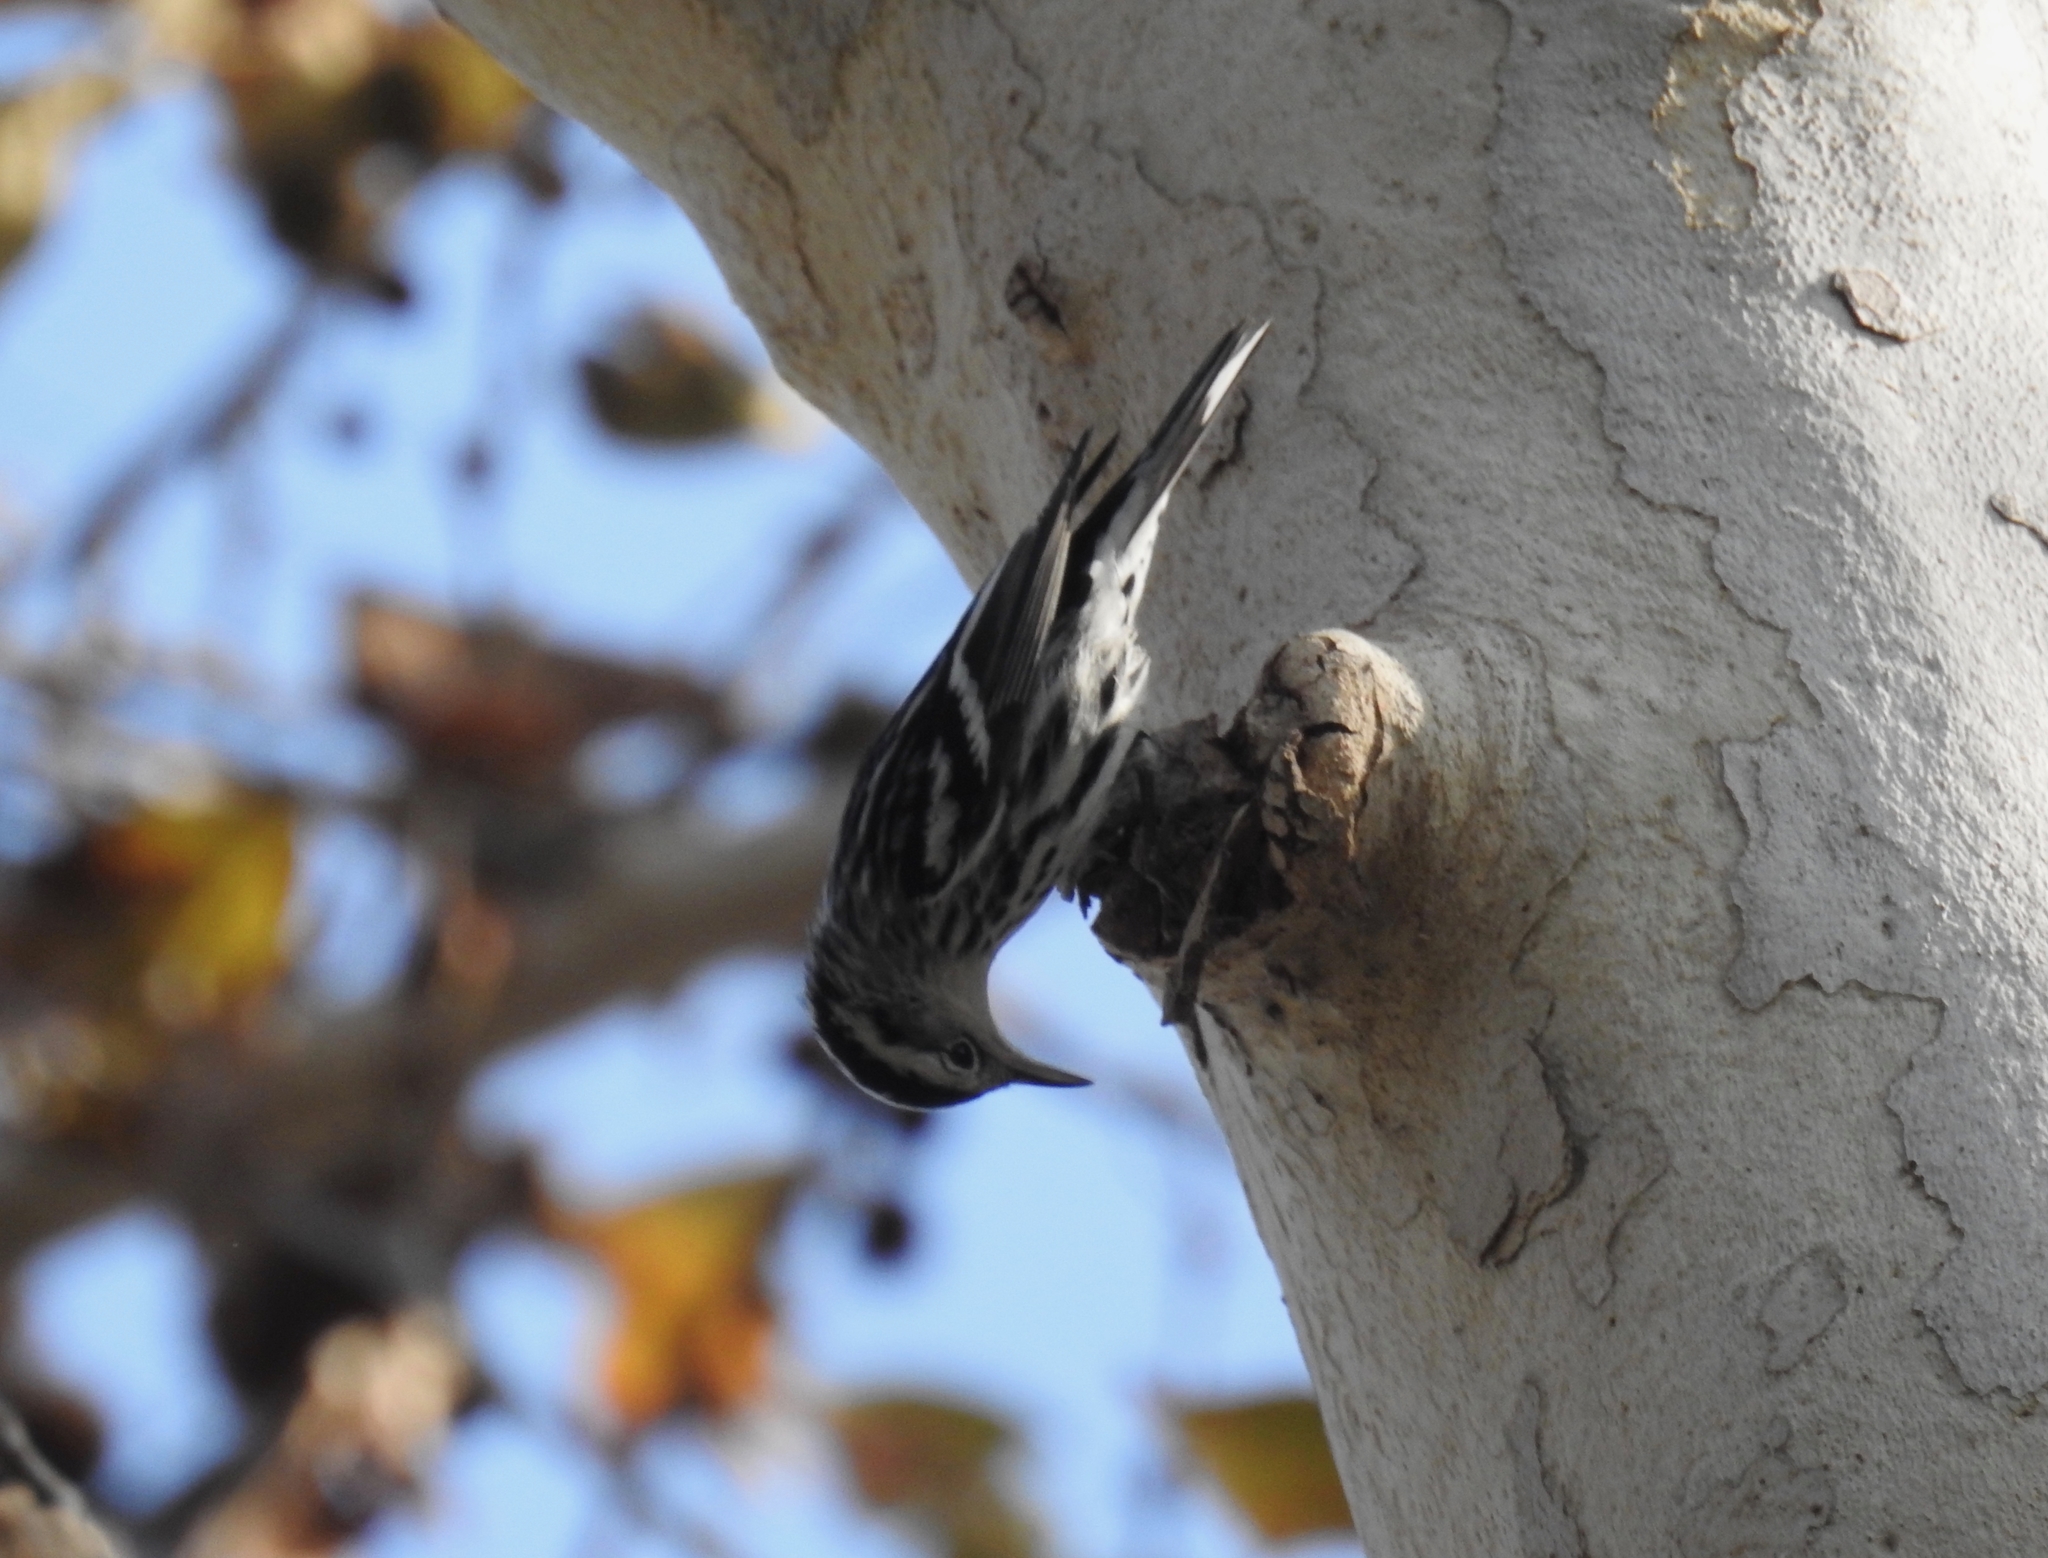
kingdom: Animalia
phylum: Chordata
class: Aves
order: Passeriformes
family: Parulidae
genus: Mniotilta
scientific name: Mniotilta varia
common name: Black-and-white warbler
